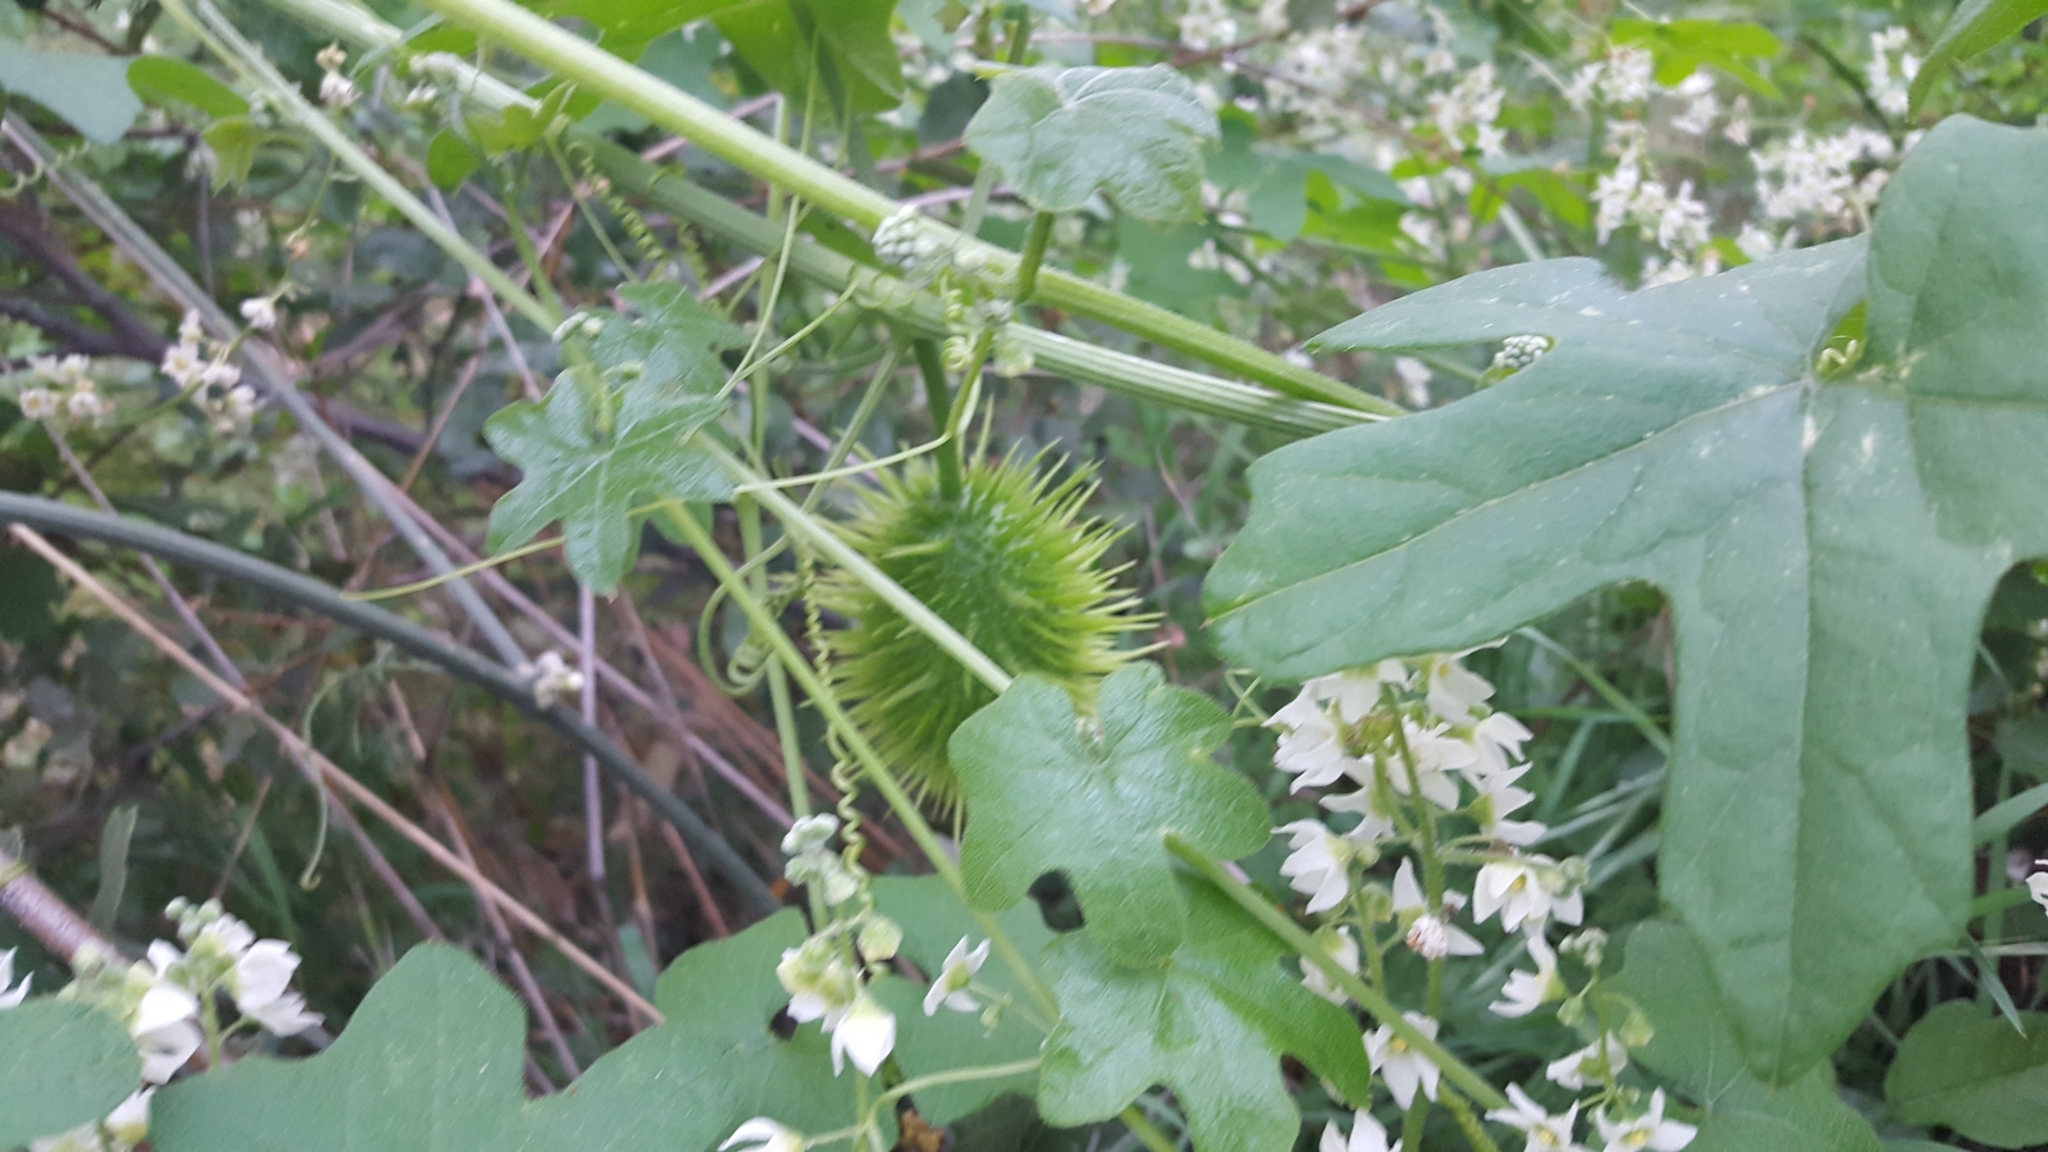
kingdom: Plantae
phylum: Tracheophyta
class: Magnoliopsida
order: Cucurbitales
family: Cucurbitaceae
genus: Marah
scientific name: Marah macrocarpa
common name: Cucamonga manroot
